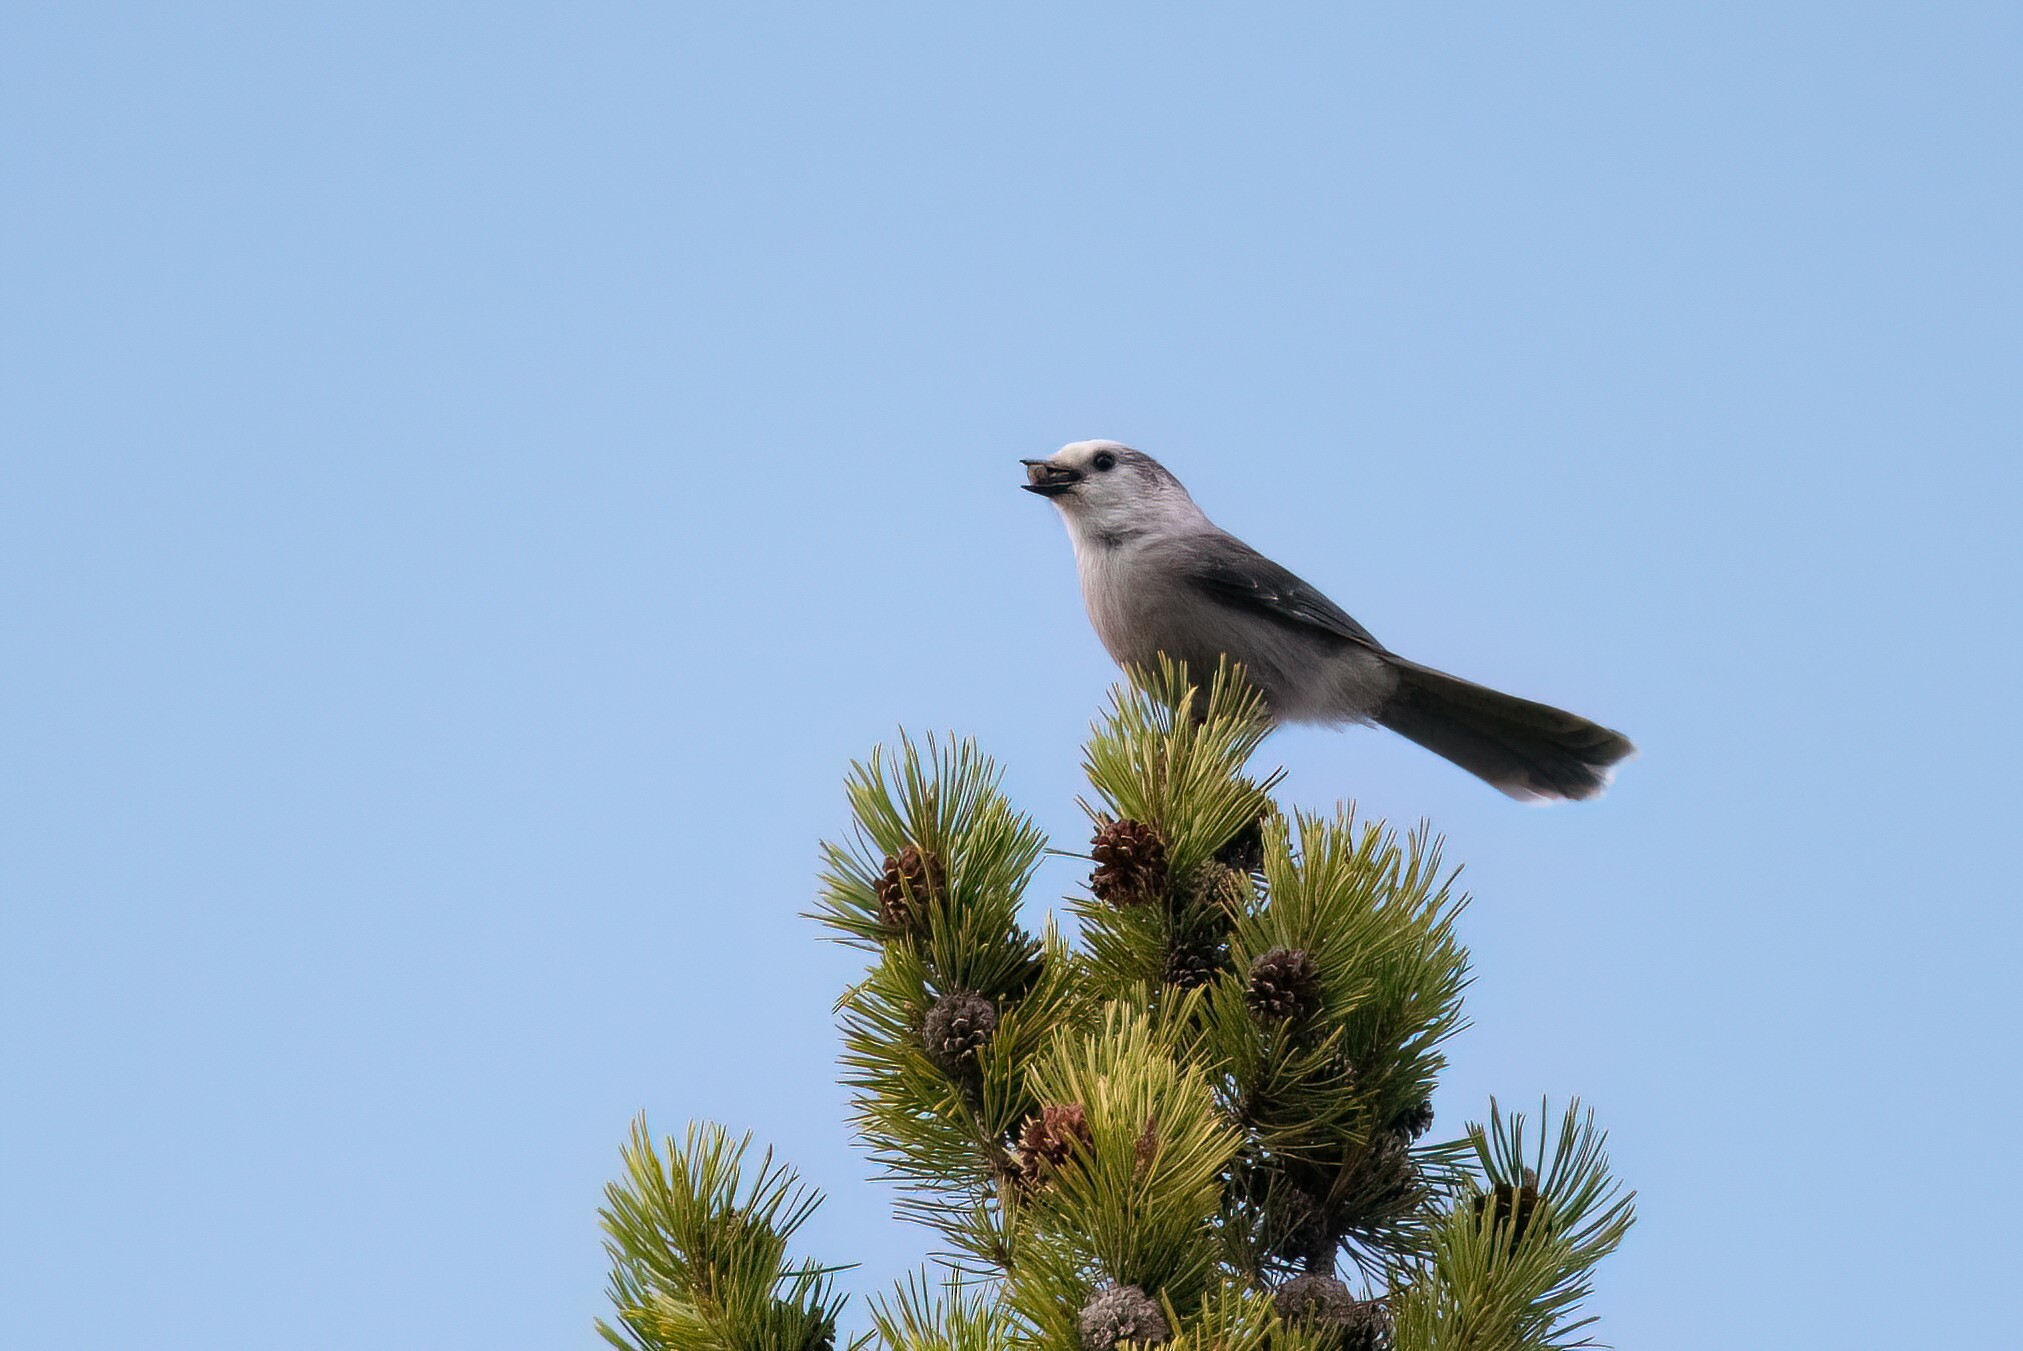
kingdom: Animalia
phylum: Chordata
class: Aves
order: Passeriformes
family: Corvidae
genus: Perisoreus
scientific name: Perisoreus canadensis
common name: Gray jay
